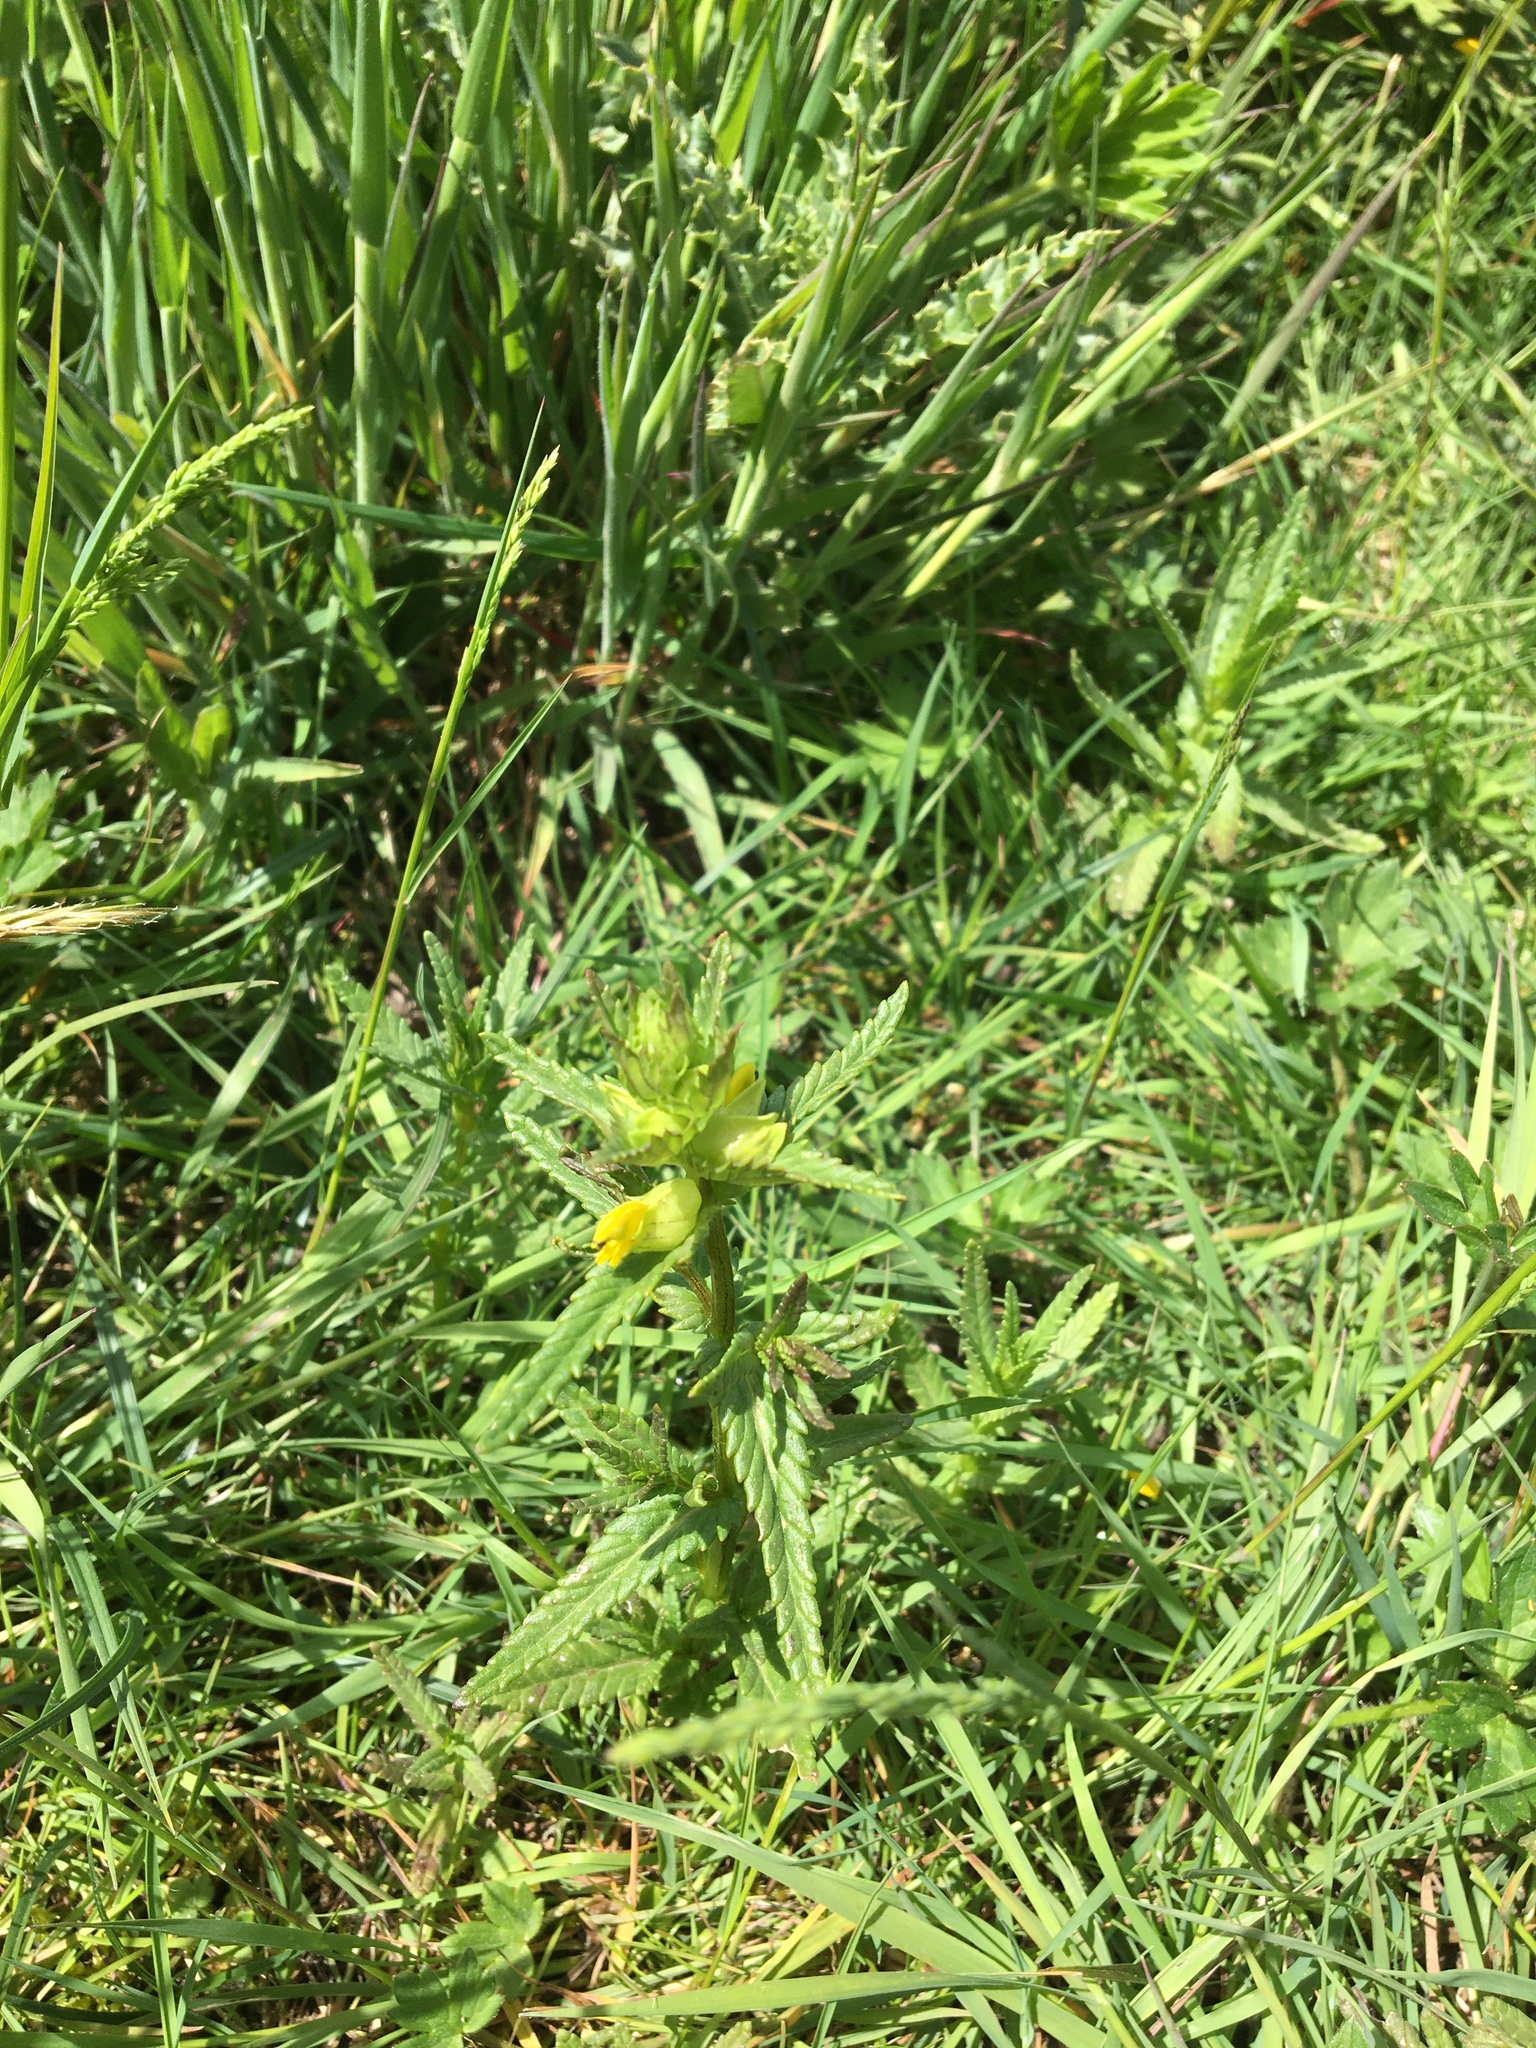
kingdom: Plantae
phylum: Tracheophyta
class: Magnoliopsida
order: Lamiales
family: Orobanchaceae
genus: Rhinanthus
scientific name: Rhinanthus minor
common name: Yellow-rattle
